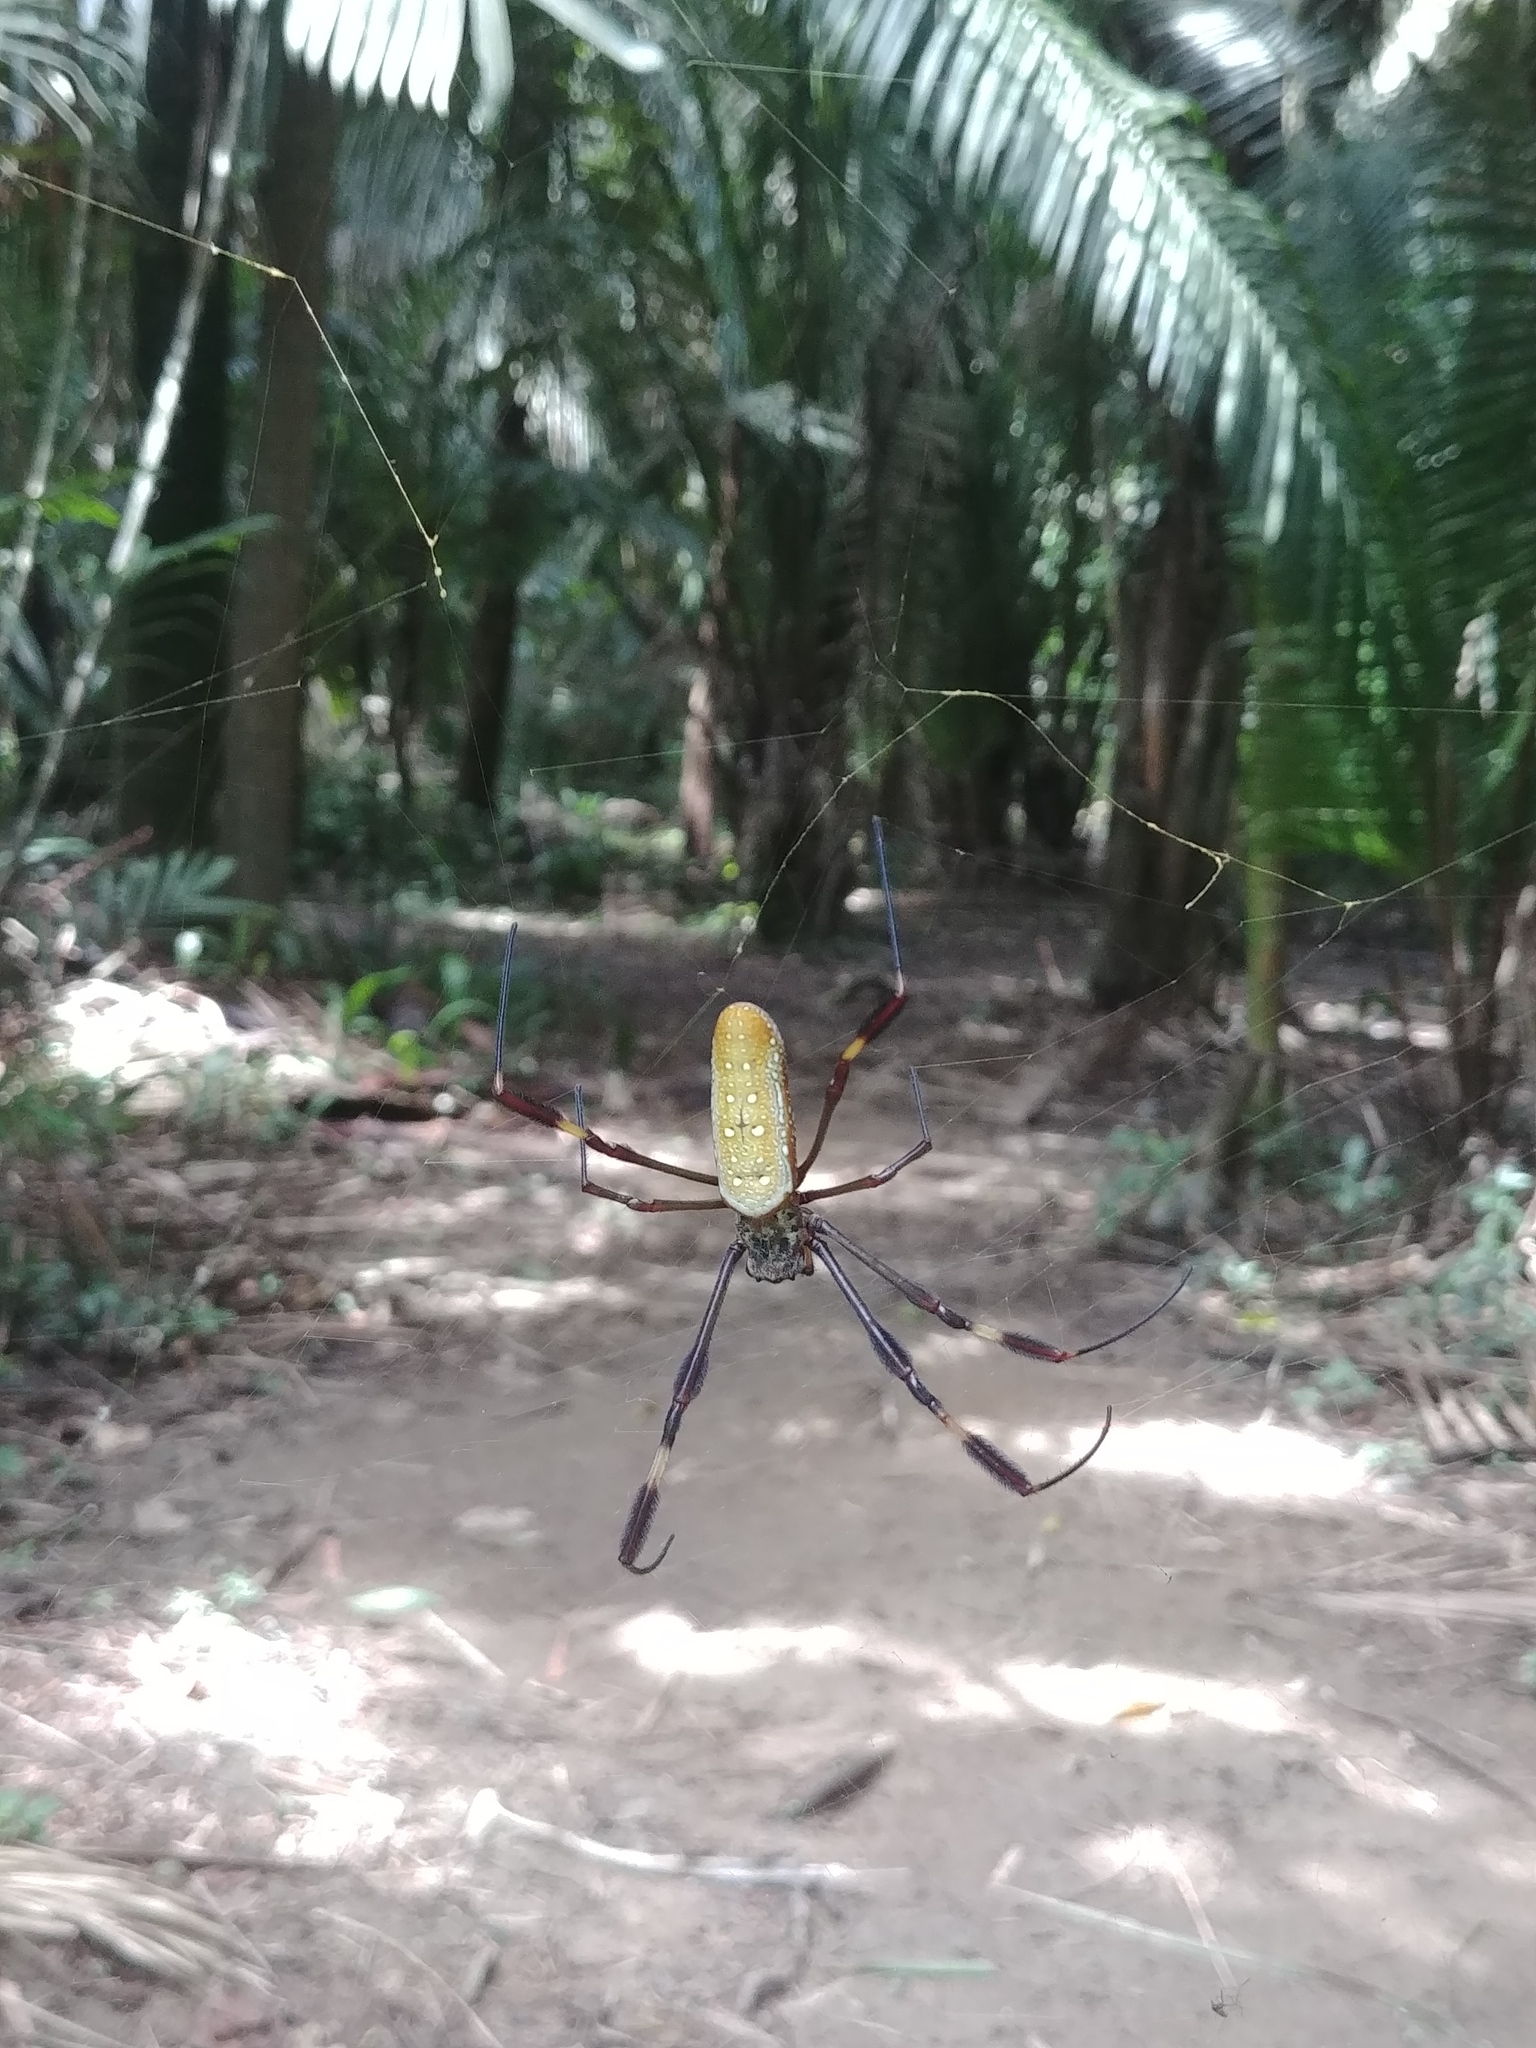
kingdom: Animalia
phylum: Arthropoda
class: Arachnida
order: Araneae
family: Araneidae
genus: Trichonephila
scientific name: Trichonephila clavipes
